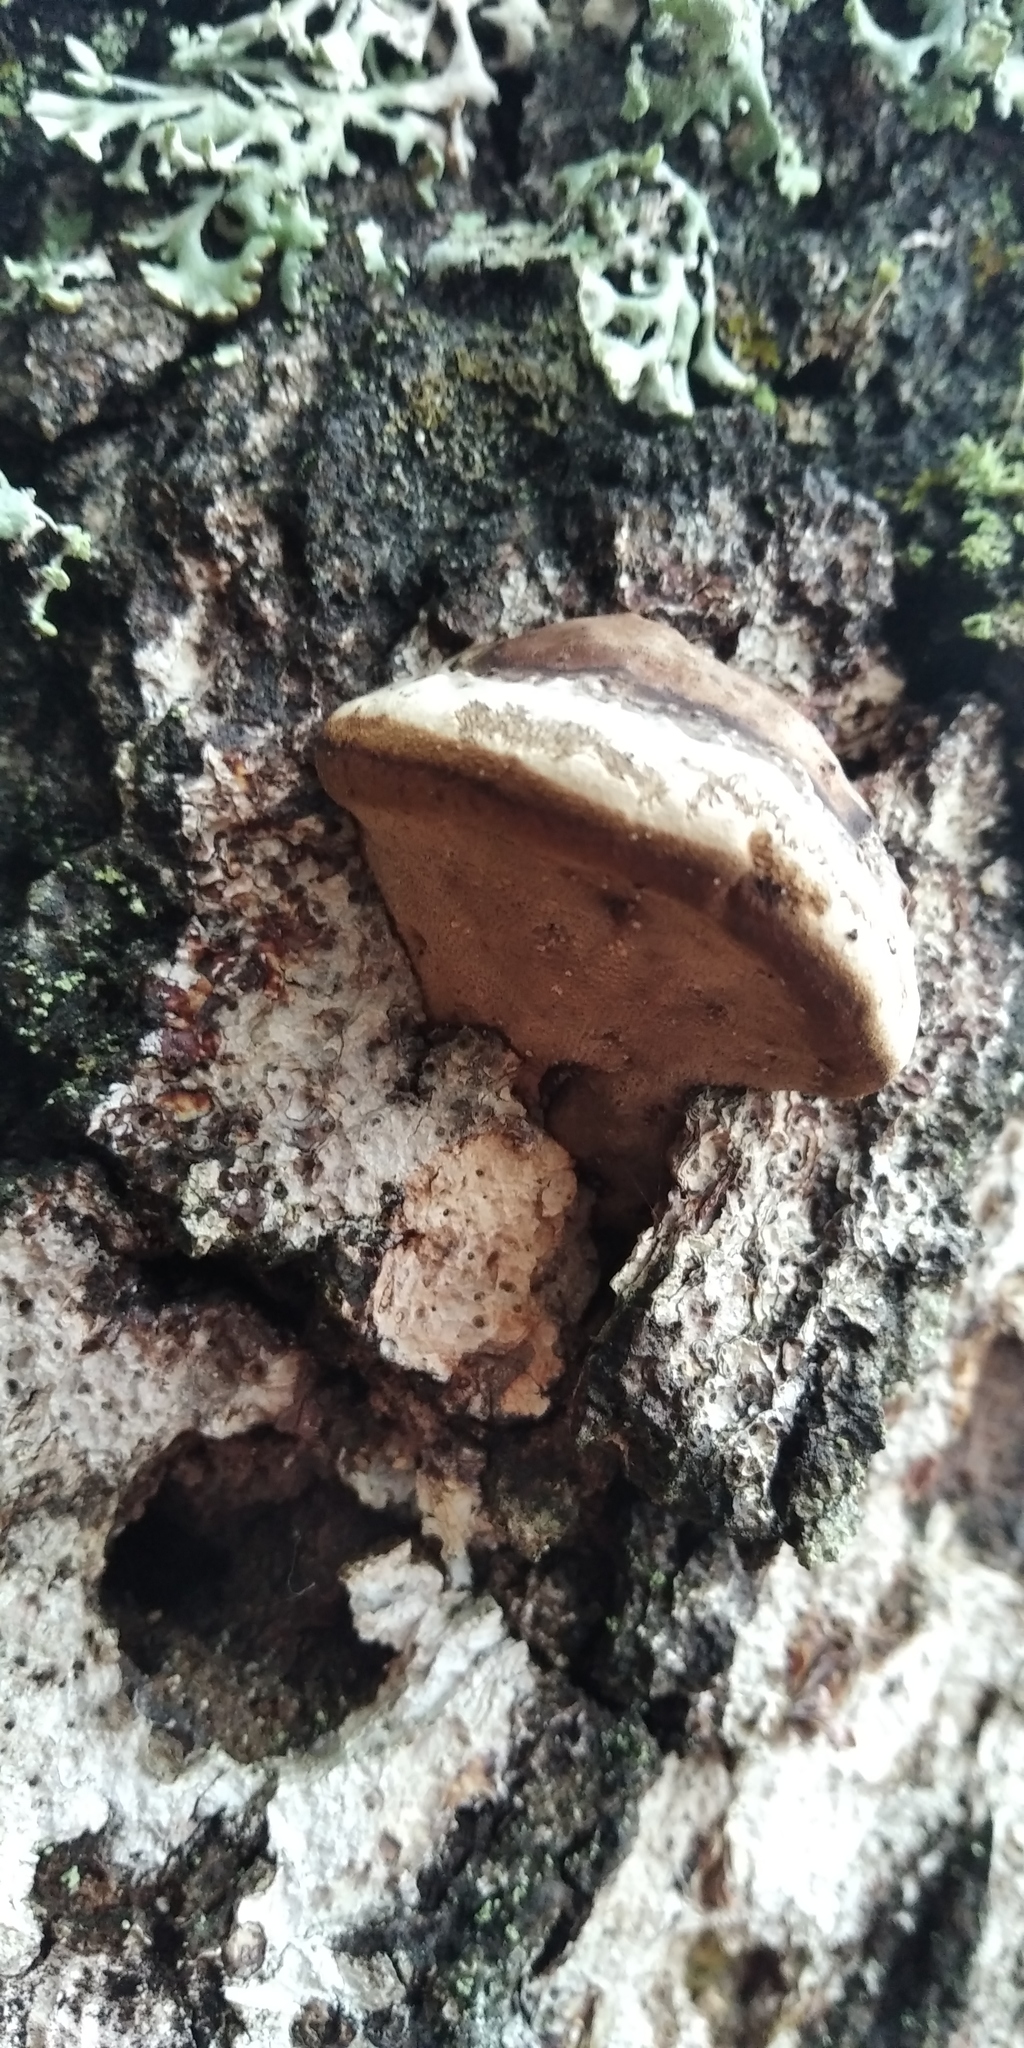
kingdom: Fungi
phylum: Basidiomycota
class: Agaricomycetes
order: Polyporales
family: Polyporaceae
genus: Fomes
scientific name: Fomes fomentarius
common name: Hoof fungus
